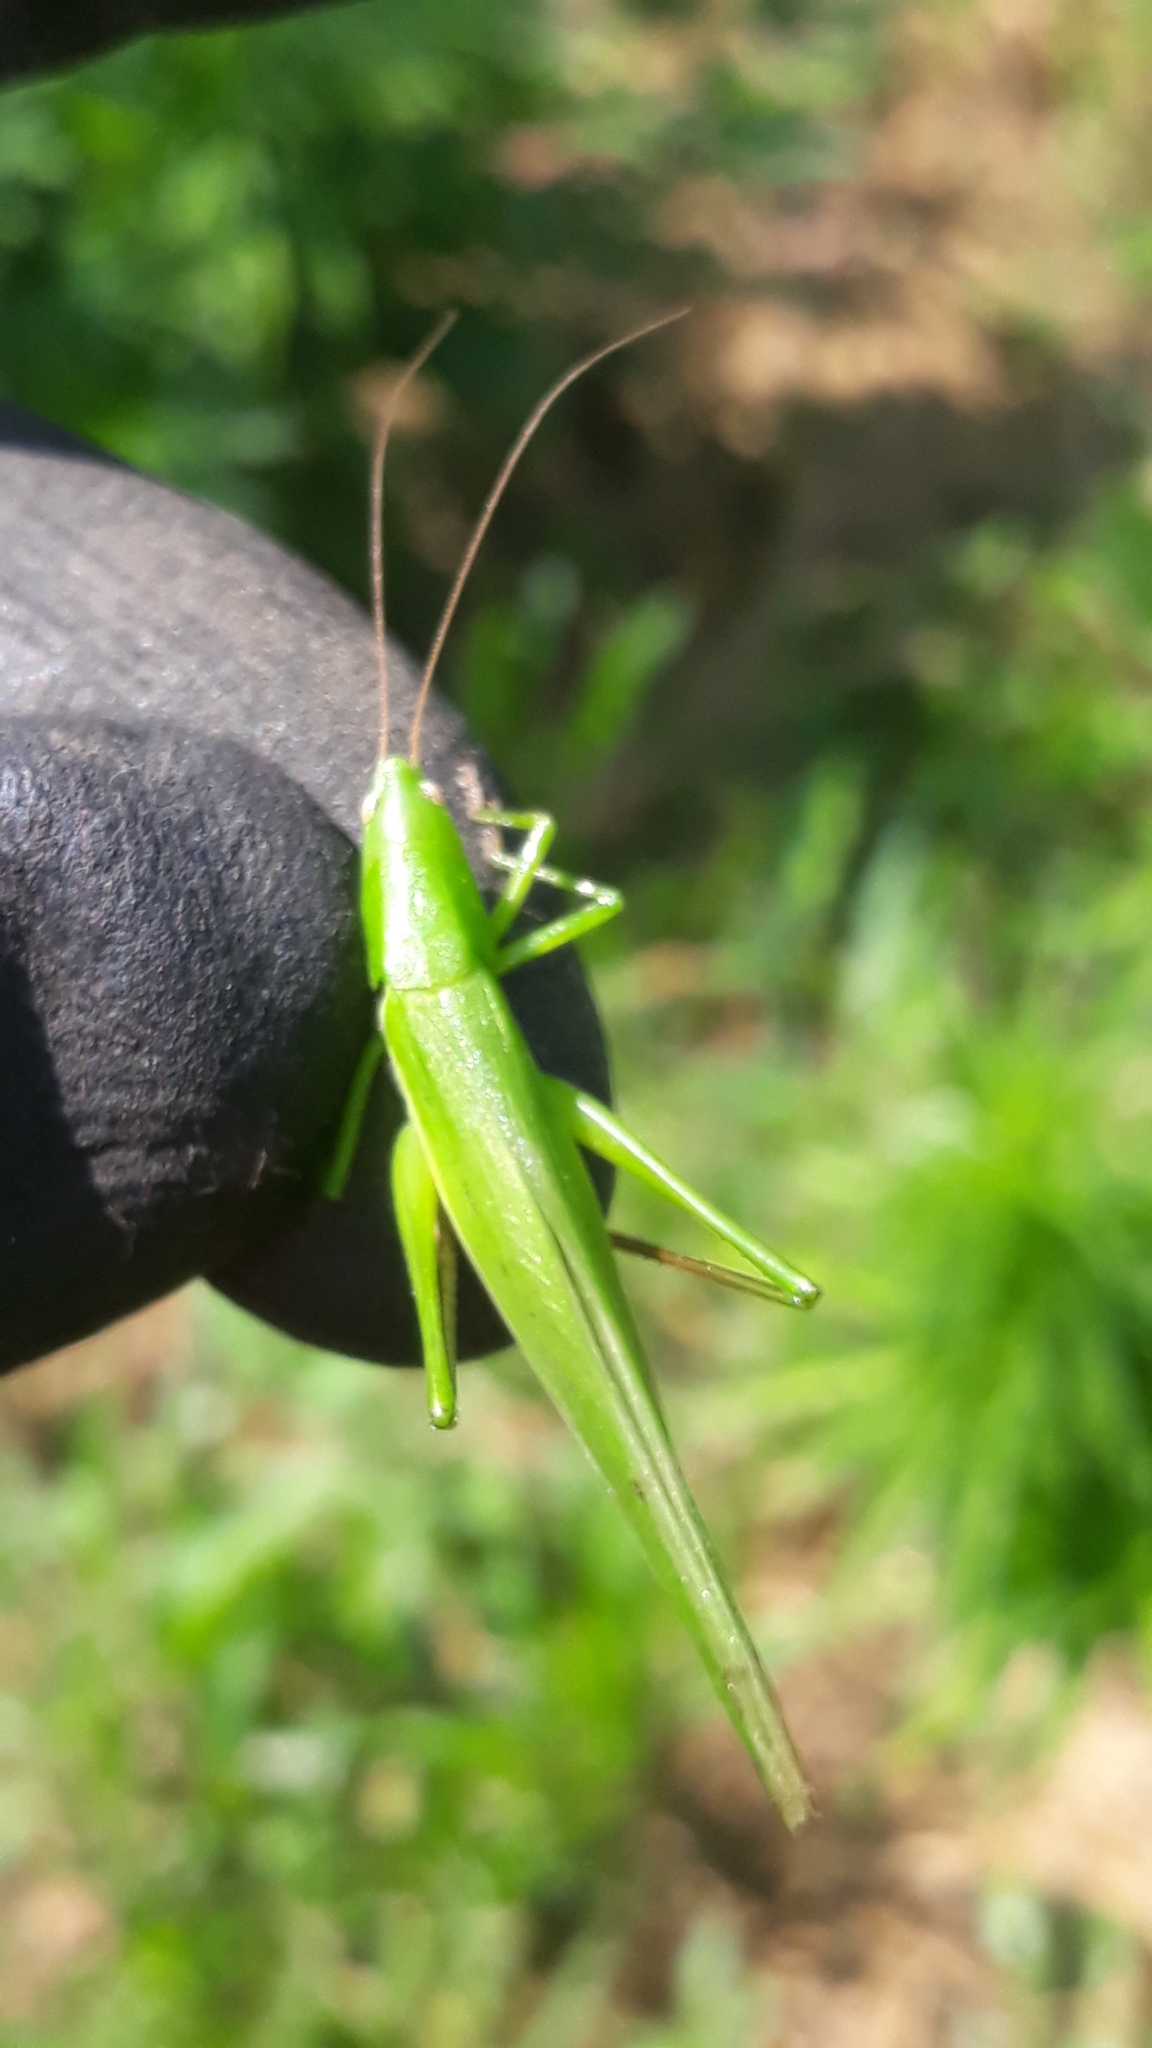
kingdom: Animalia
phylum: Arthropoda
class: Insecta
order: Orthoptera
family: Tettigoniidae
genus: Ruspolia
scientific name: Ruspolia nitidula
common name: Large conehead
